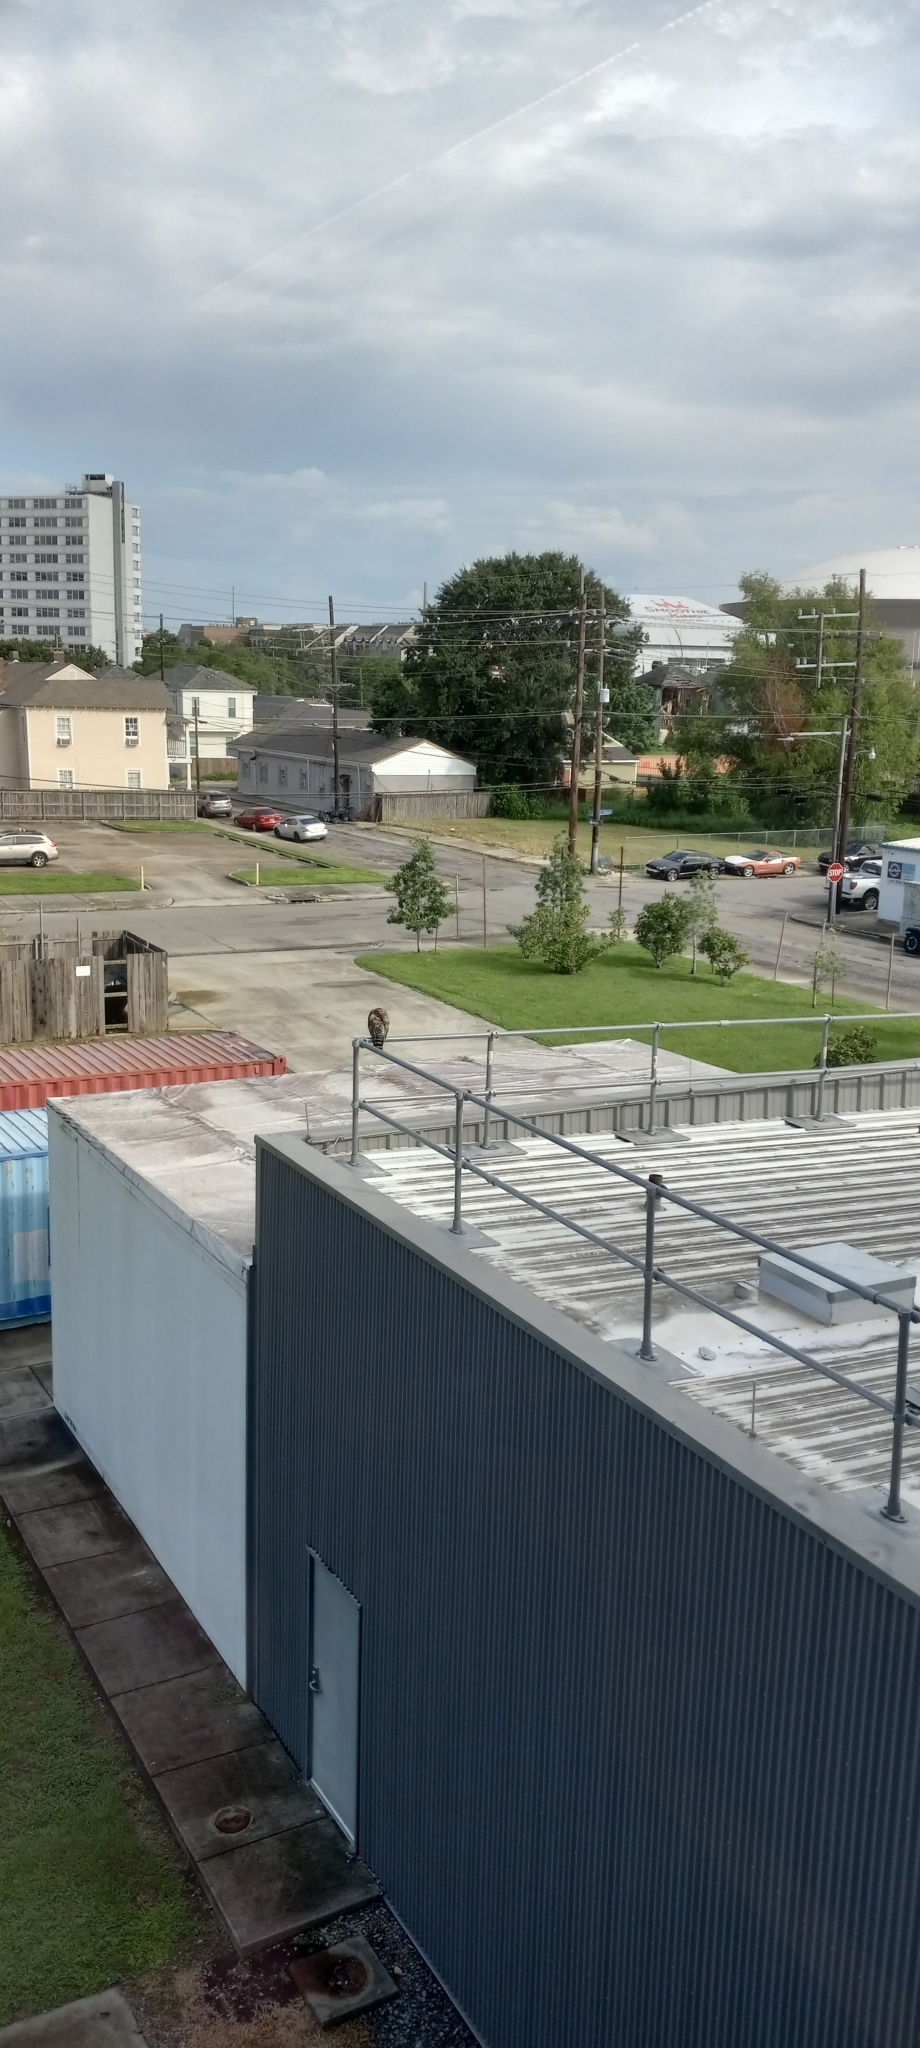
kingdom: Animalia
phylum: Chordata
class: Aves
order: Accipitriformes
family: Accipitridae
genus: Buteo
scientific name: Buteo lineatus
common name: Red-shouldered hawk
